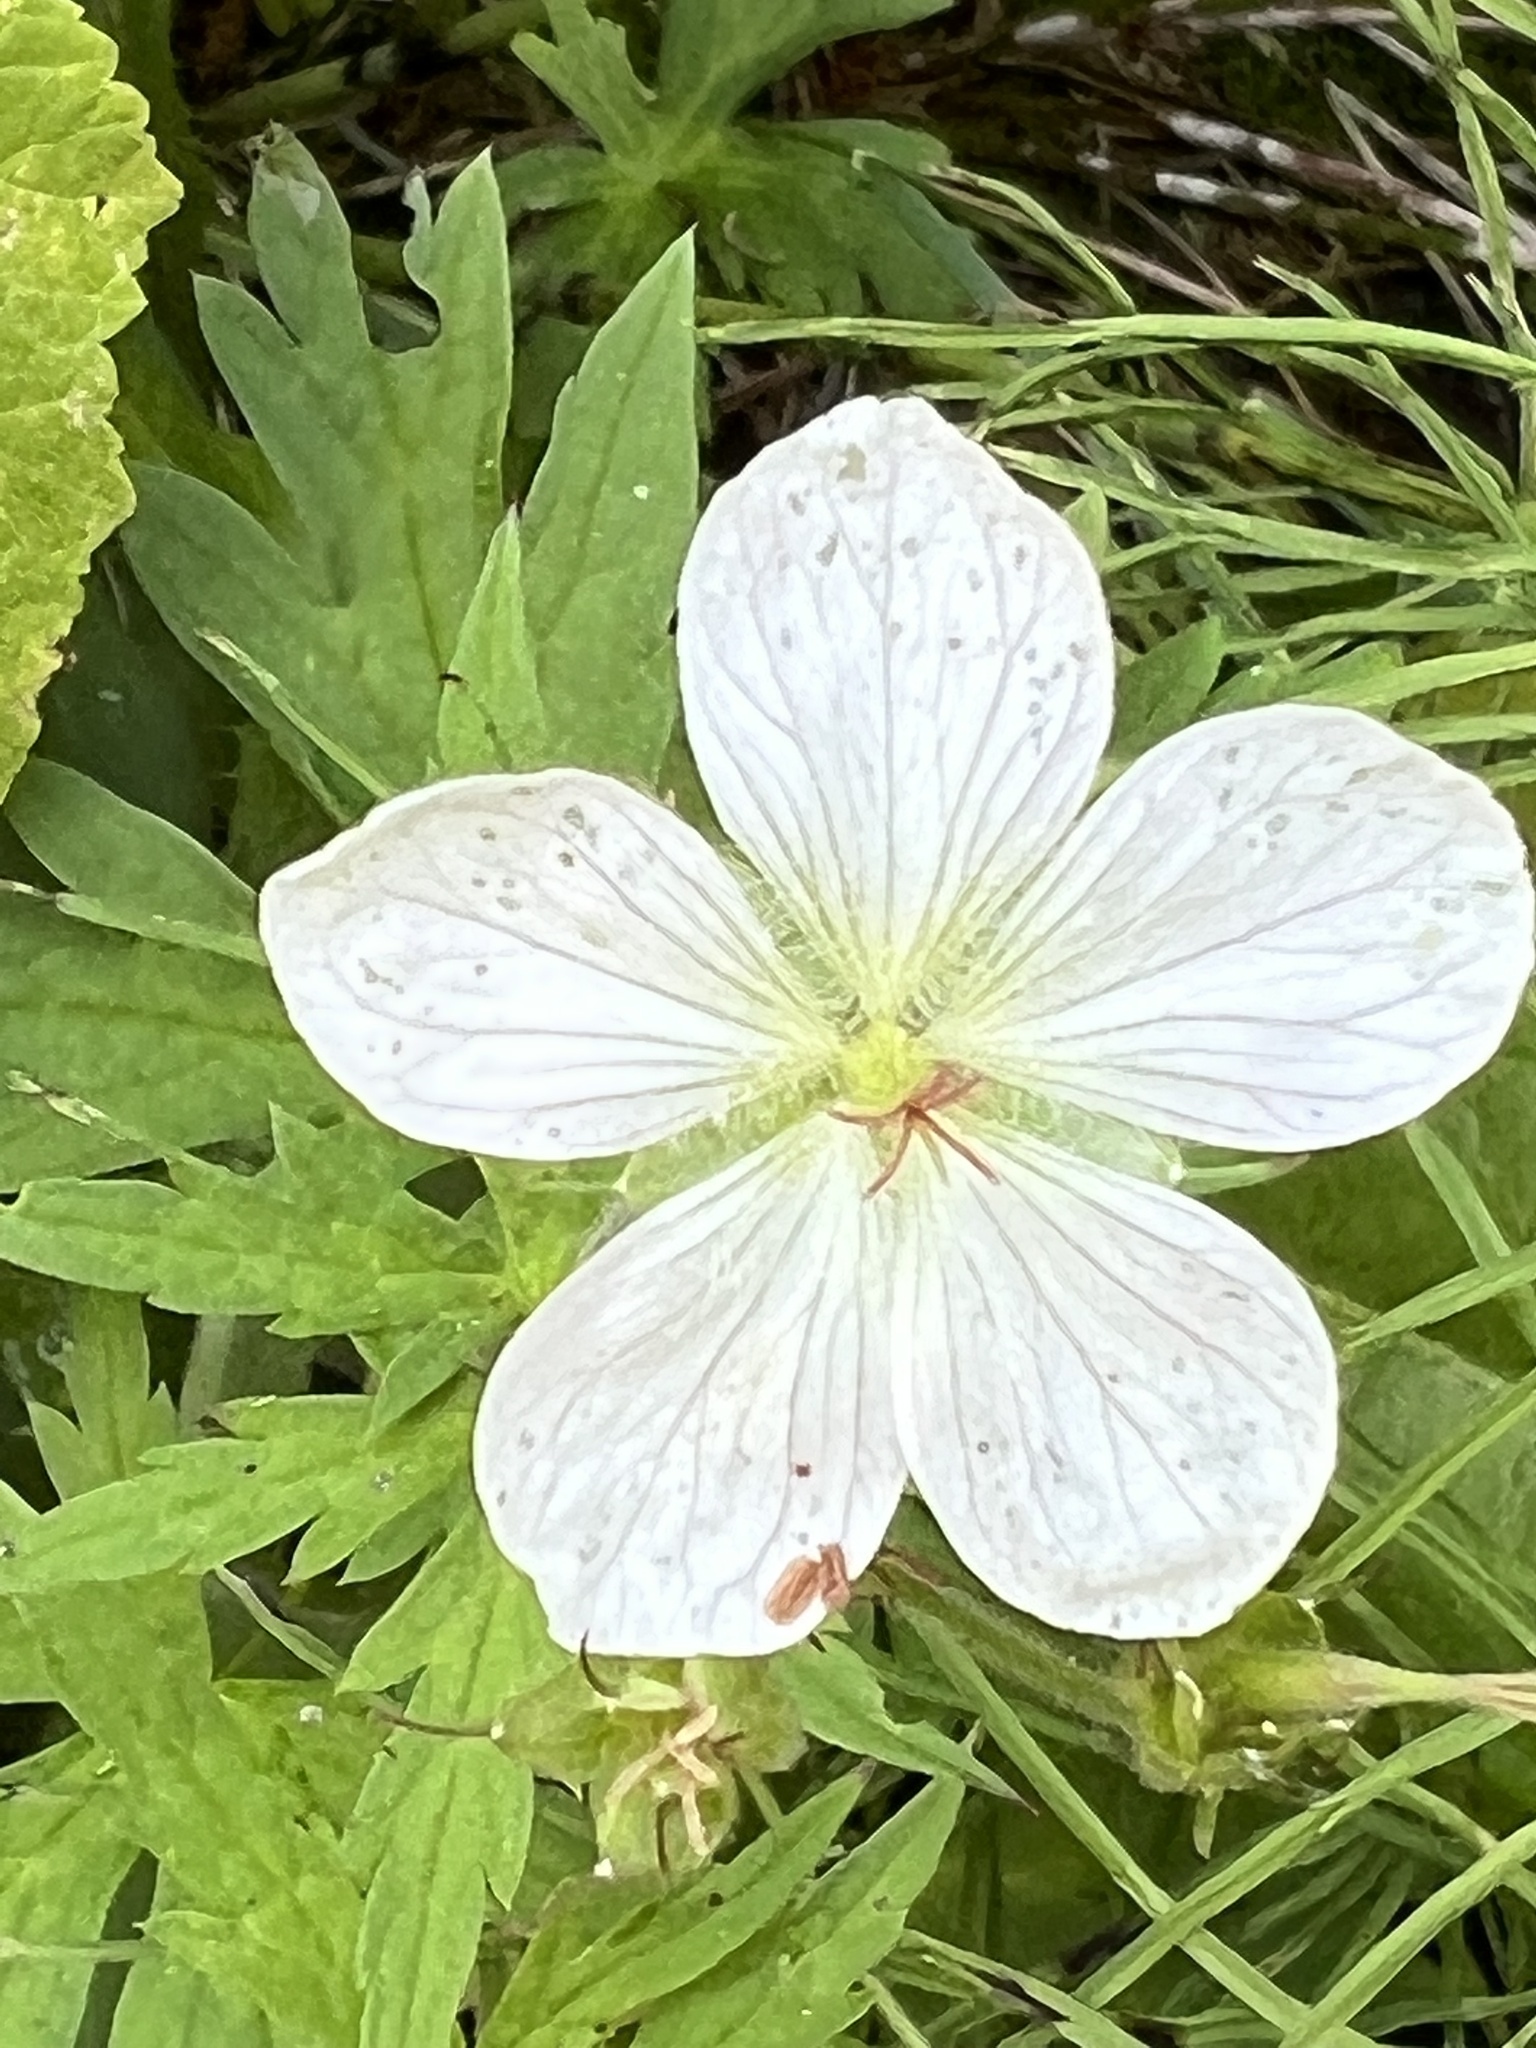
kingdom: Plantae
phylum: Tracheophyta
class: Magnoliopsida
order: Geraniales
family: Geraniaceae
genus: Geranium
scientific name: Geranium richardsonii
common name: Richardson's crane's-bill
